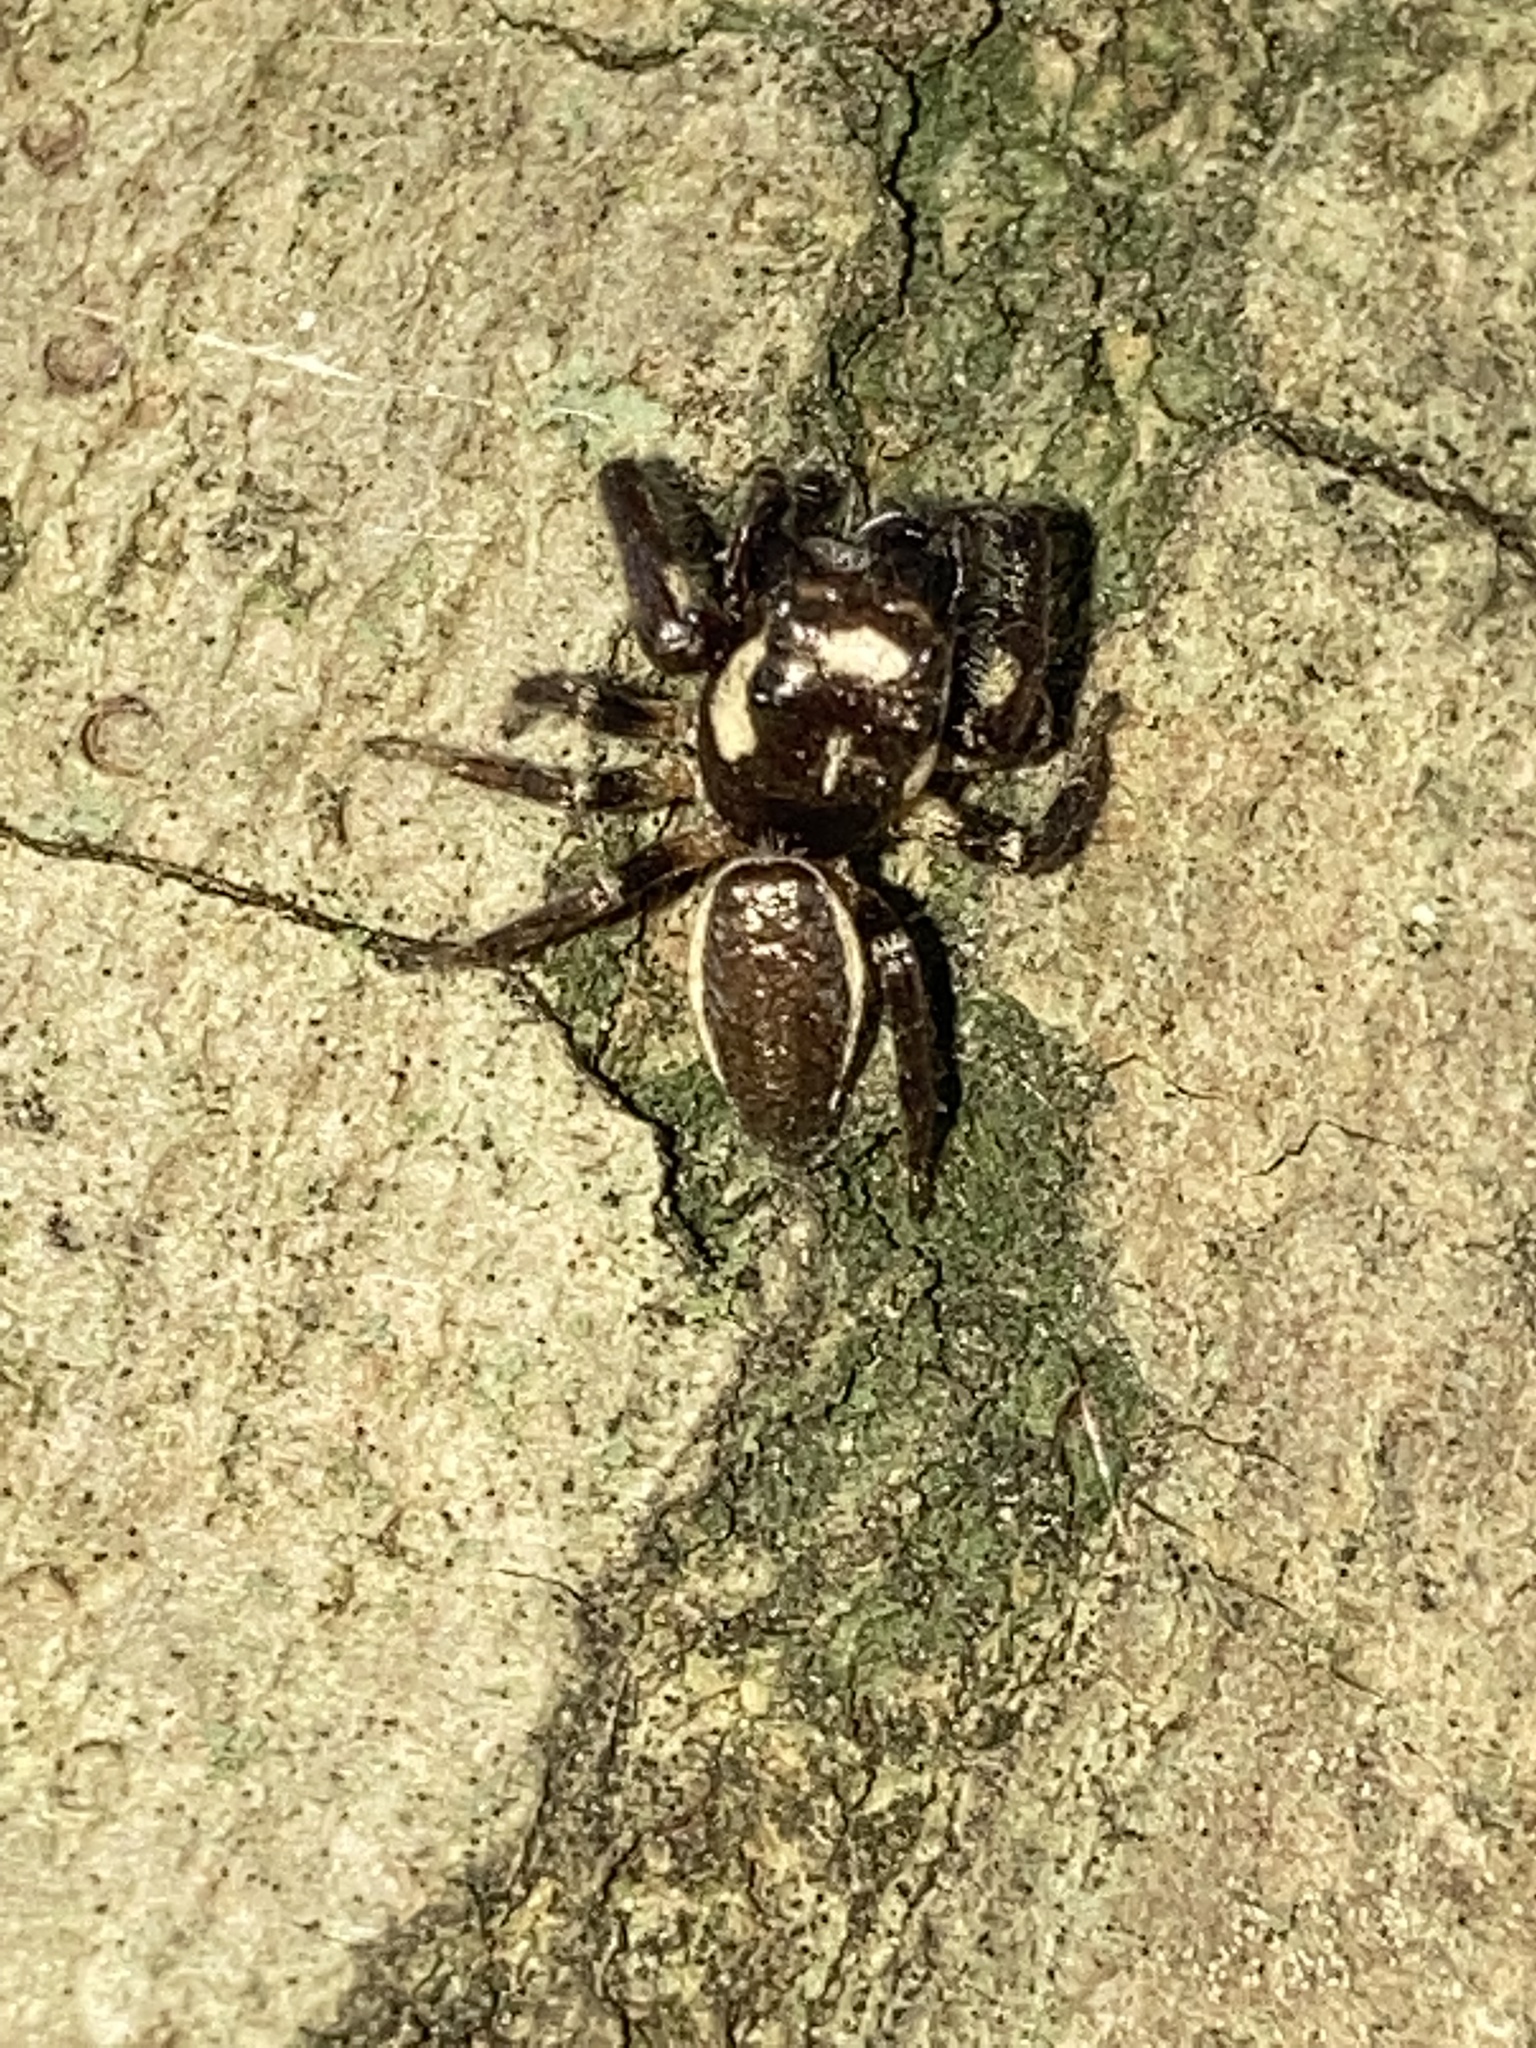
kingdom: Animalia
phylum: Arthropoda
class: Arachnida
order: Araneae
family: Salticidae
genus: Eris
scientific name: Eris militaris
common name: Bronze jumper
